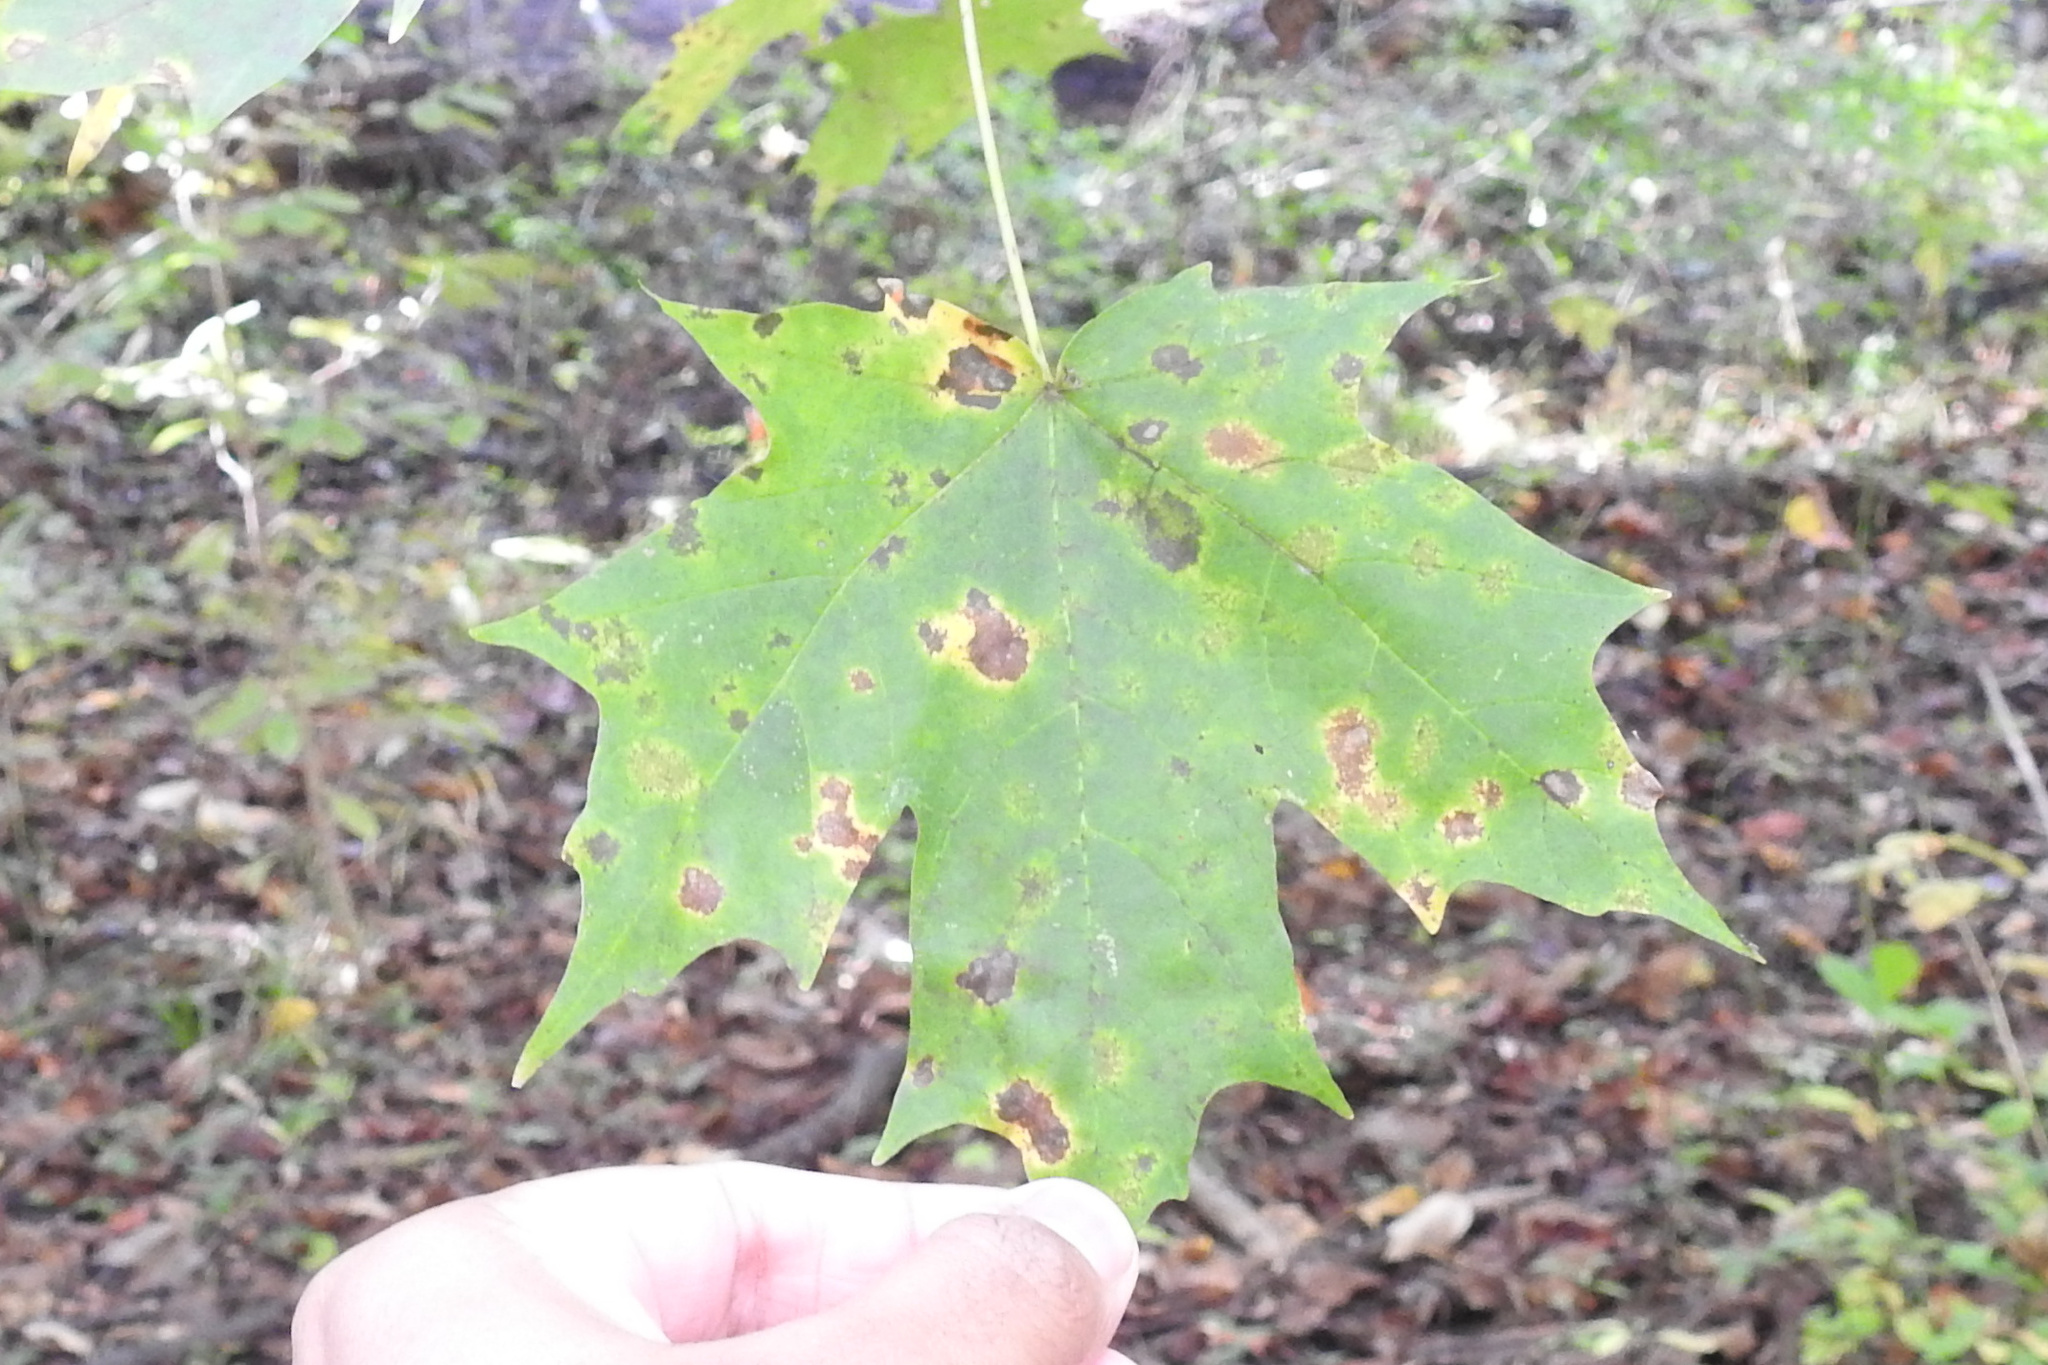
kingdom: Plantae
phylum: Tracheophyta
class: Magnoliopsida
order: Sapindales
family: Sapindaceae
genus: Acer
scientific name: Acer saccharum
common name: Sugar maple
